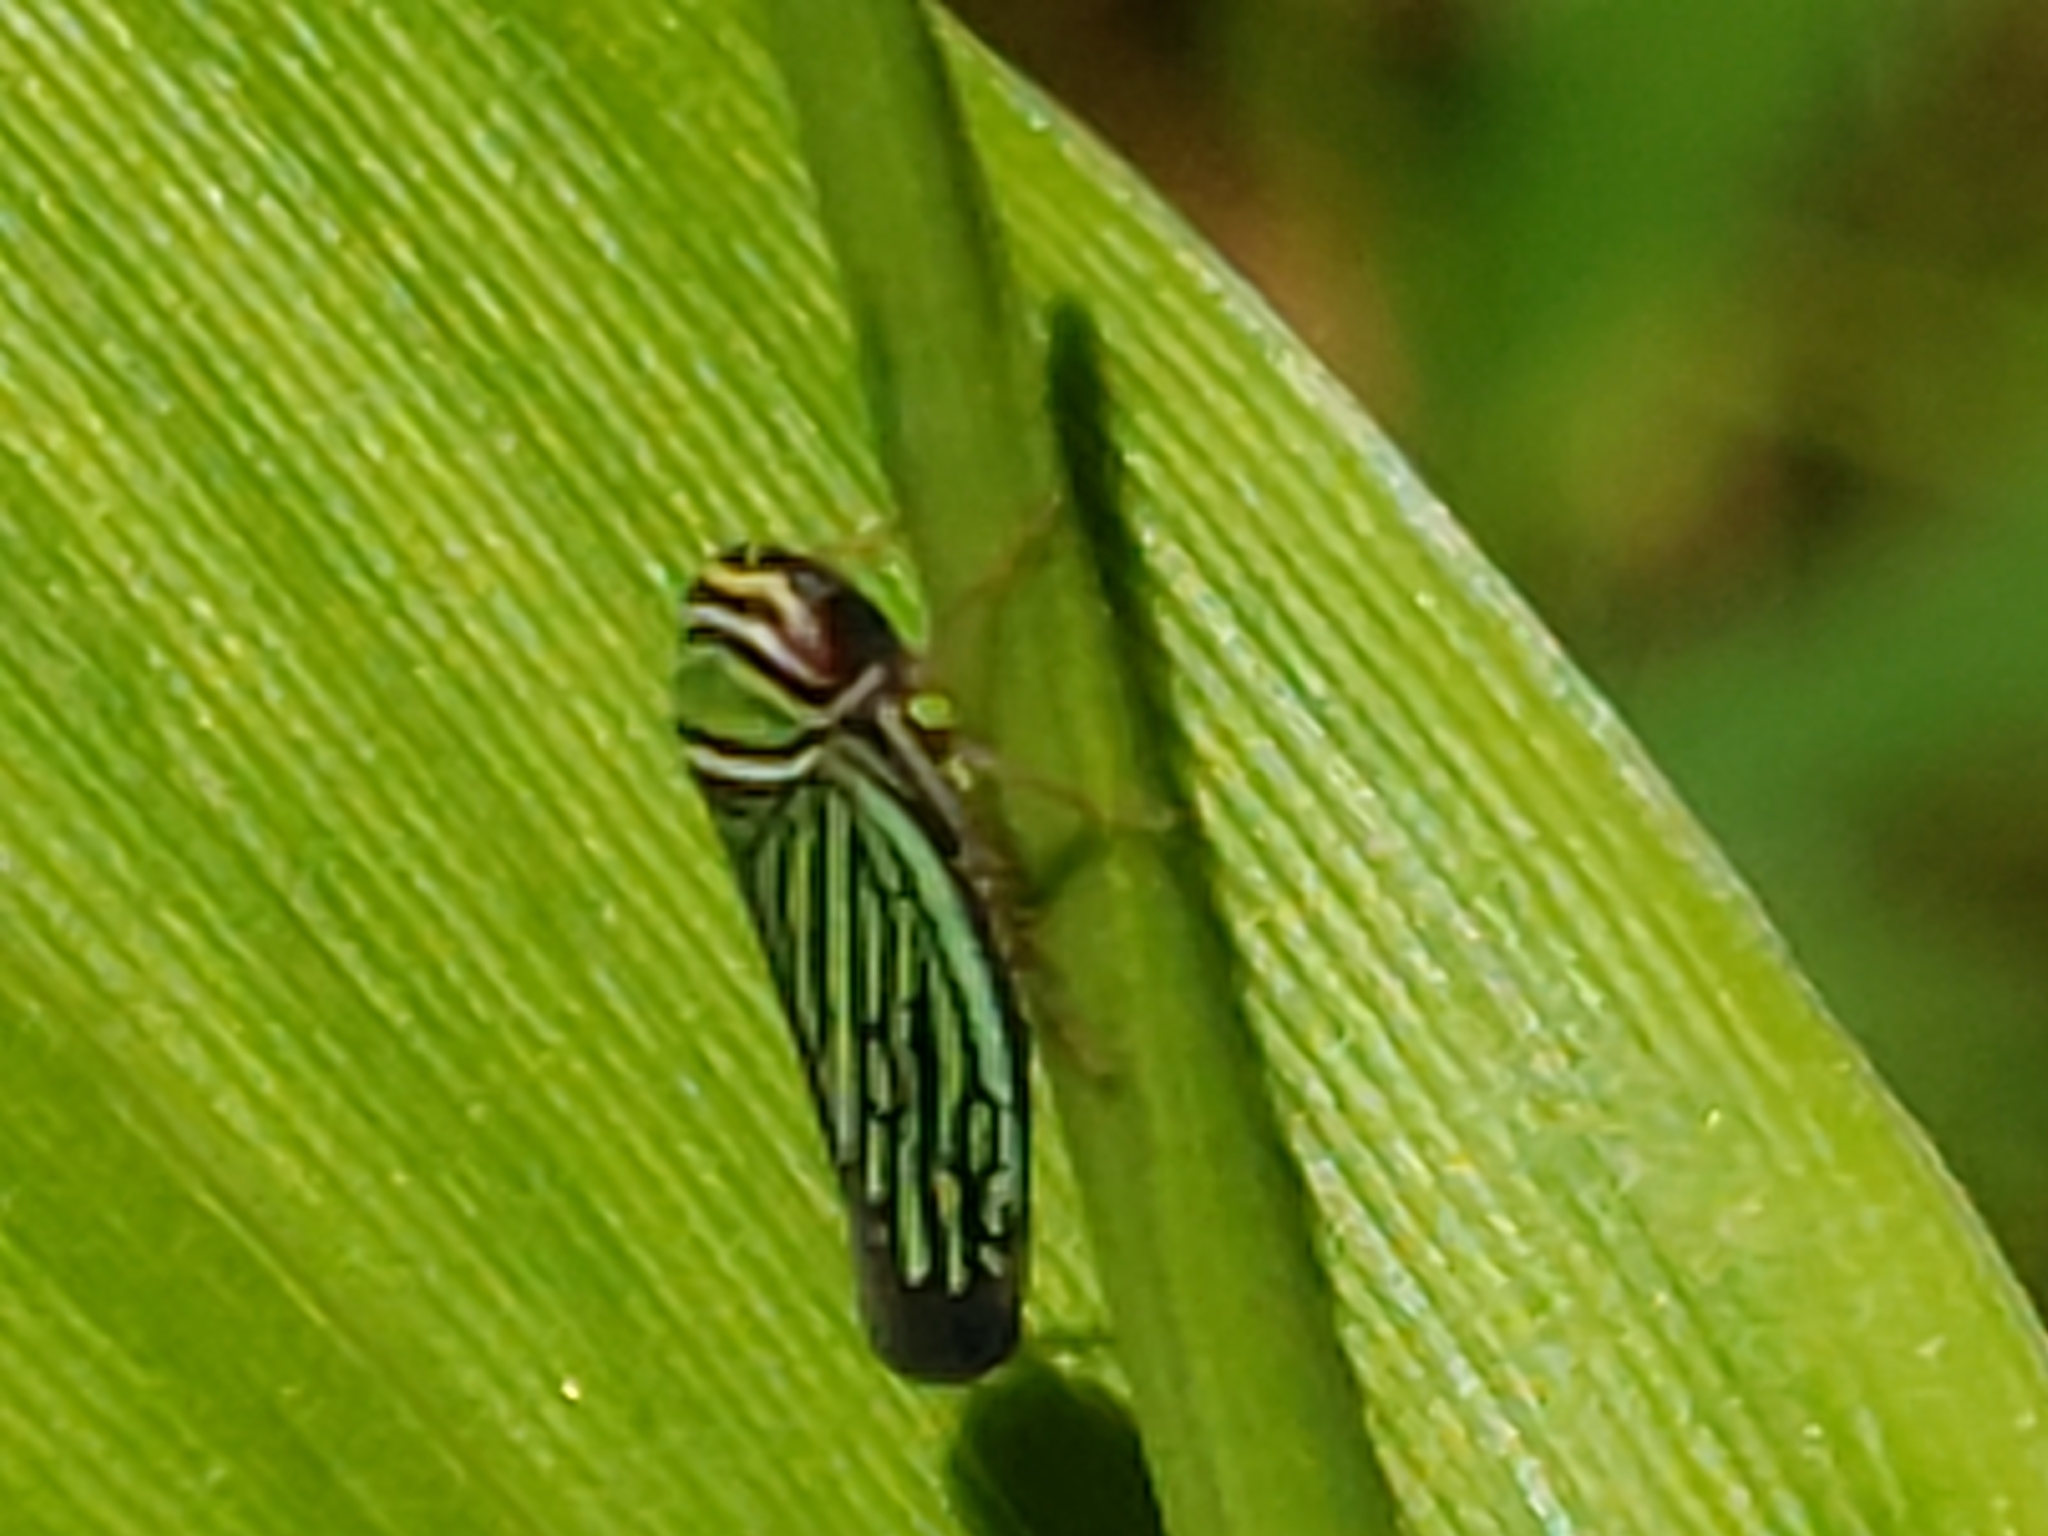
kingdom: Animalia
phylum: Arthropoda
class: Insecta
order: Hemiptera
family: Cicadellidae
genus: Tylozygus
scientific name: Tylozygus bifidus
